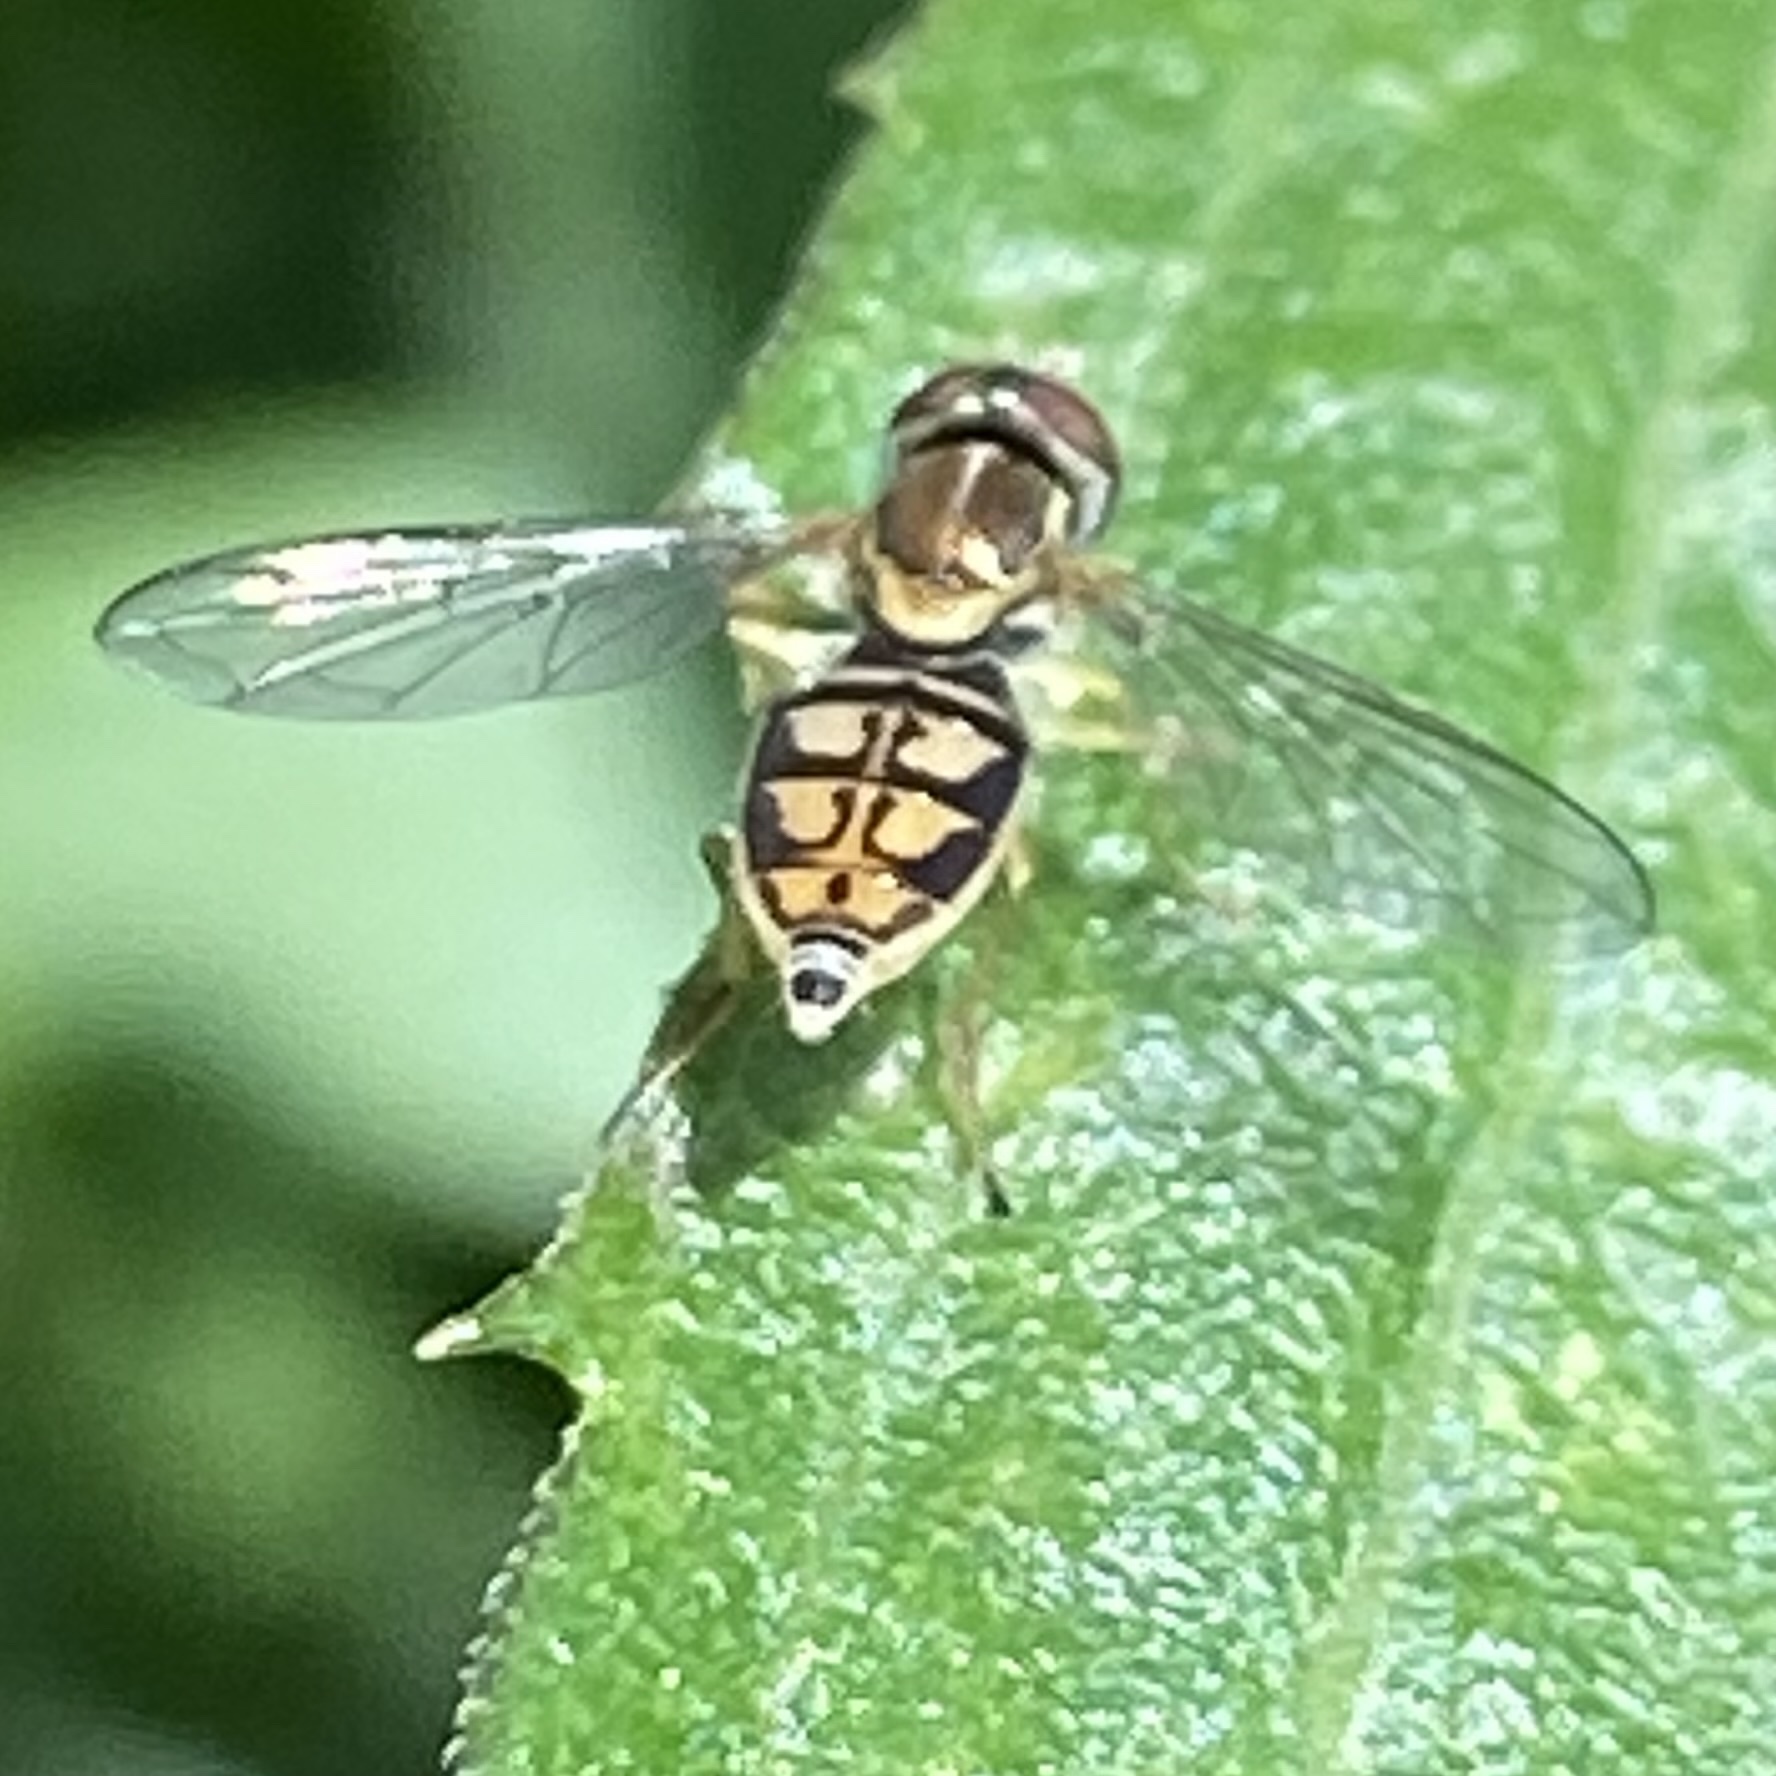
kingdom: Animalia
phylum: Arthropoda
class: Insecta
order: Diptera
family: Syrphidae
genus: Toxomerus
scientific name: Toxomerus marginatus
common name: Syrphid fly
